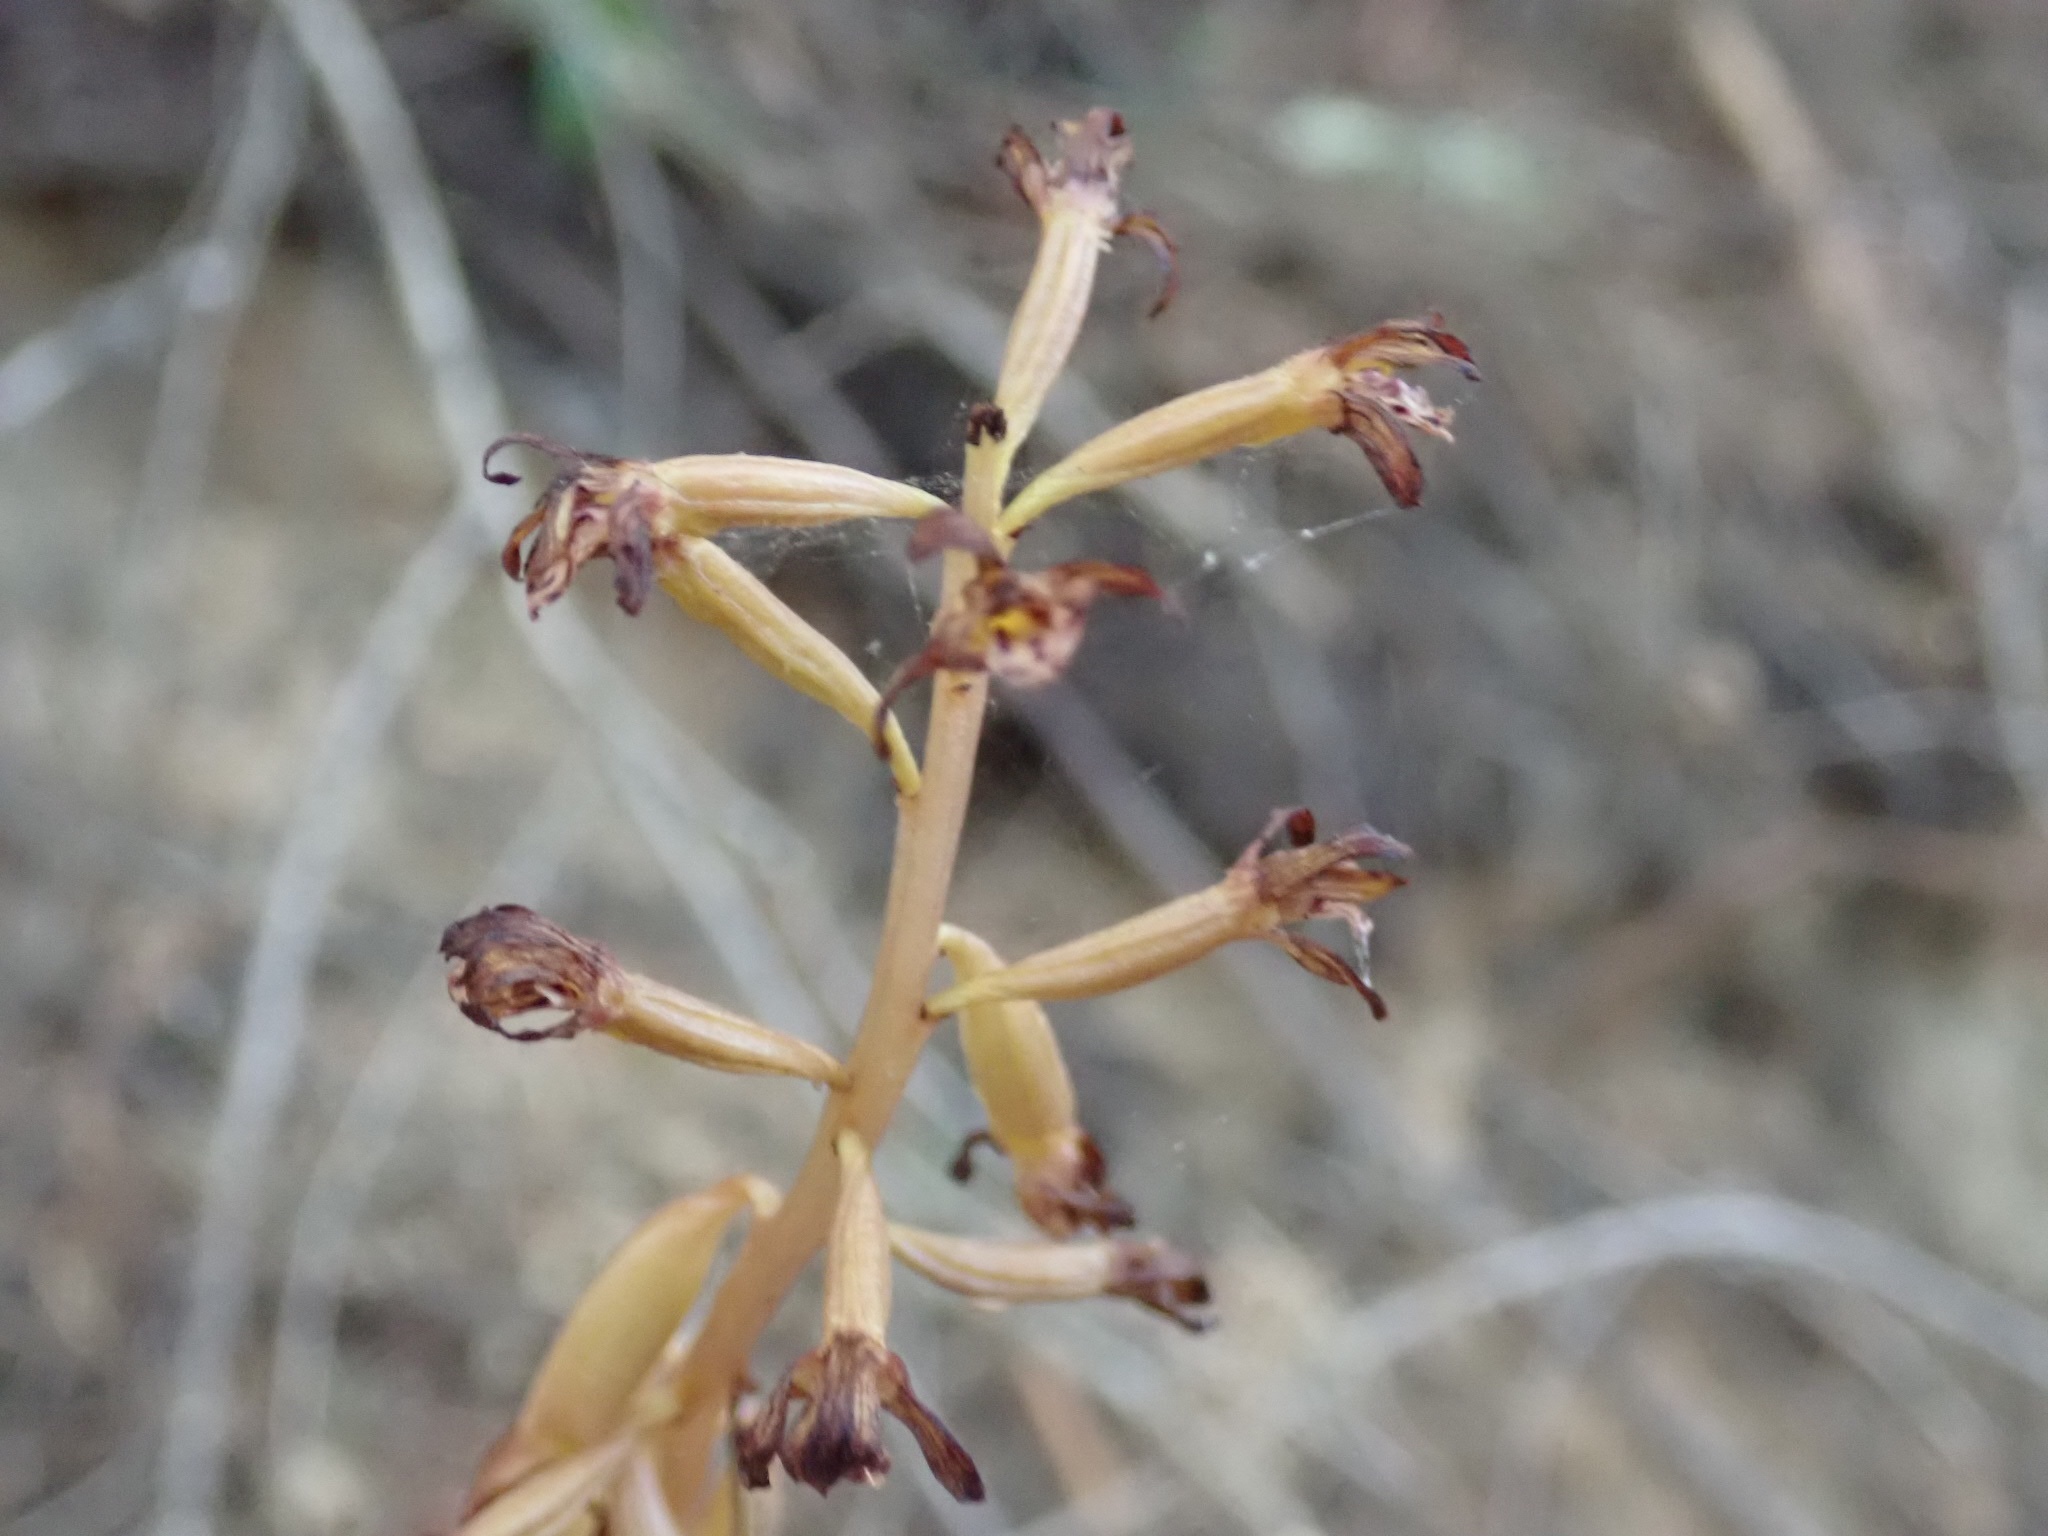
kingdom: Plantae
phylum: Tracheophyta
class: Liliopsida
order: Asparagales
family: Orchidaceae
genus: Corallorhiza
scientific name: Corallorhiza maculata
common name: Spotted coralroot
